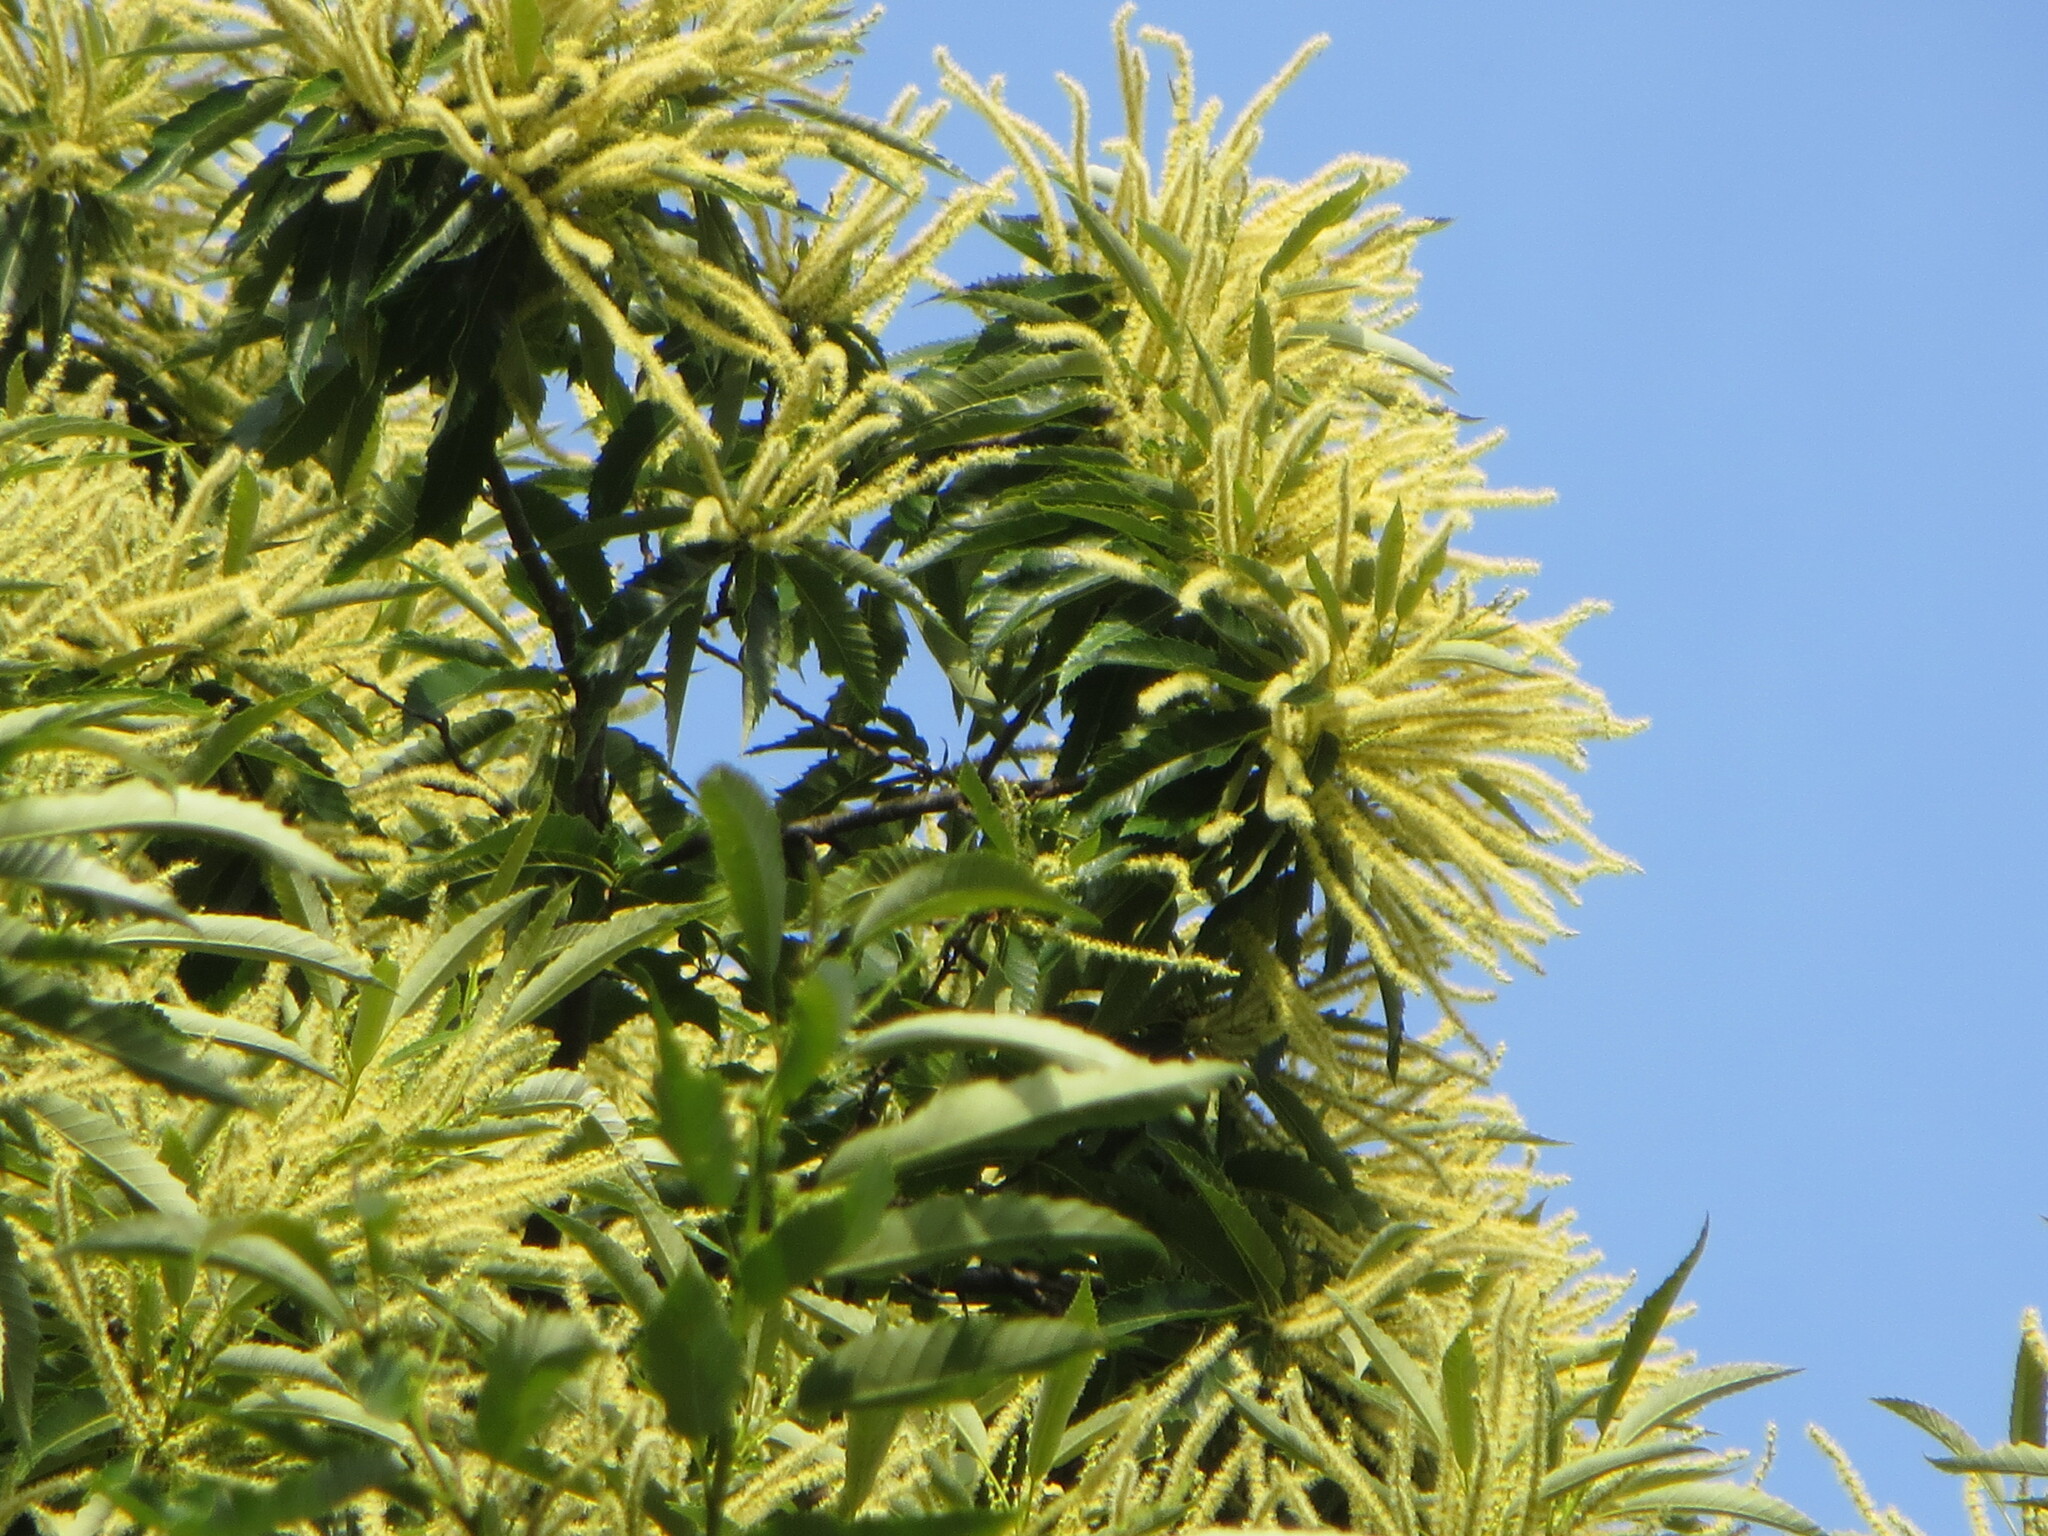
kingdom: Plantae
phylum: Tracheophyta
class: Magnoliopsida
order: Fagales
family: Fagaceae
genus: Castanea
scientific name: Castanea sativa
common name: Sweet chestnut
